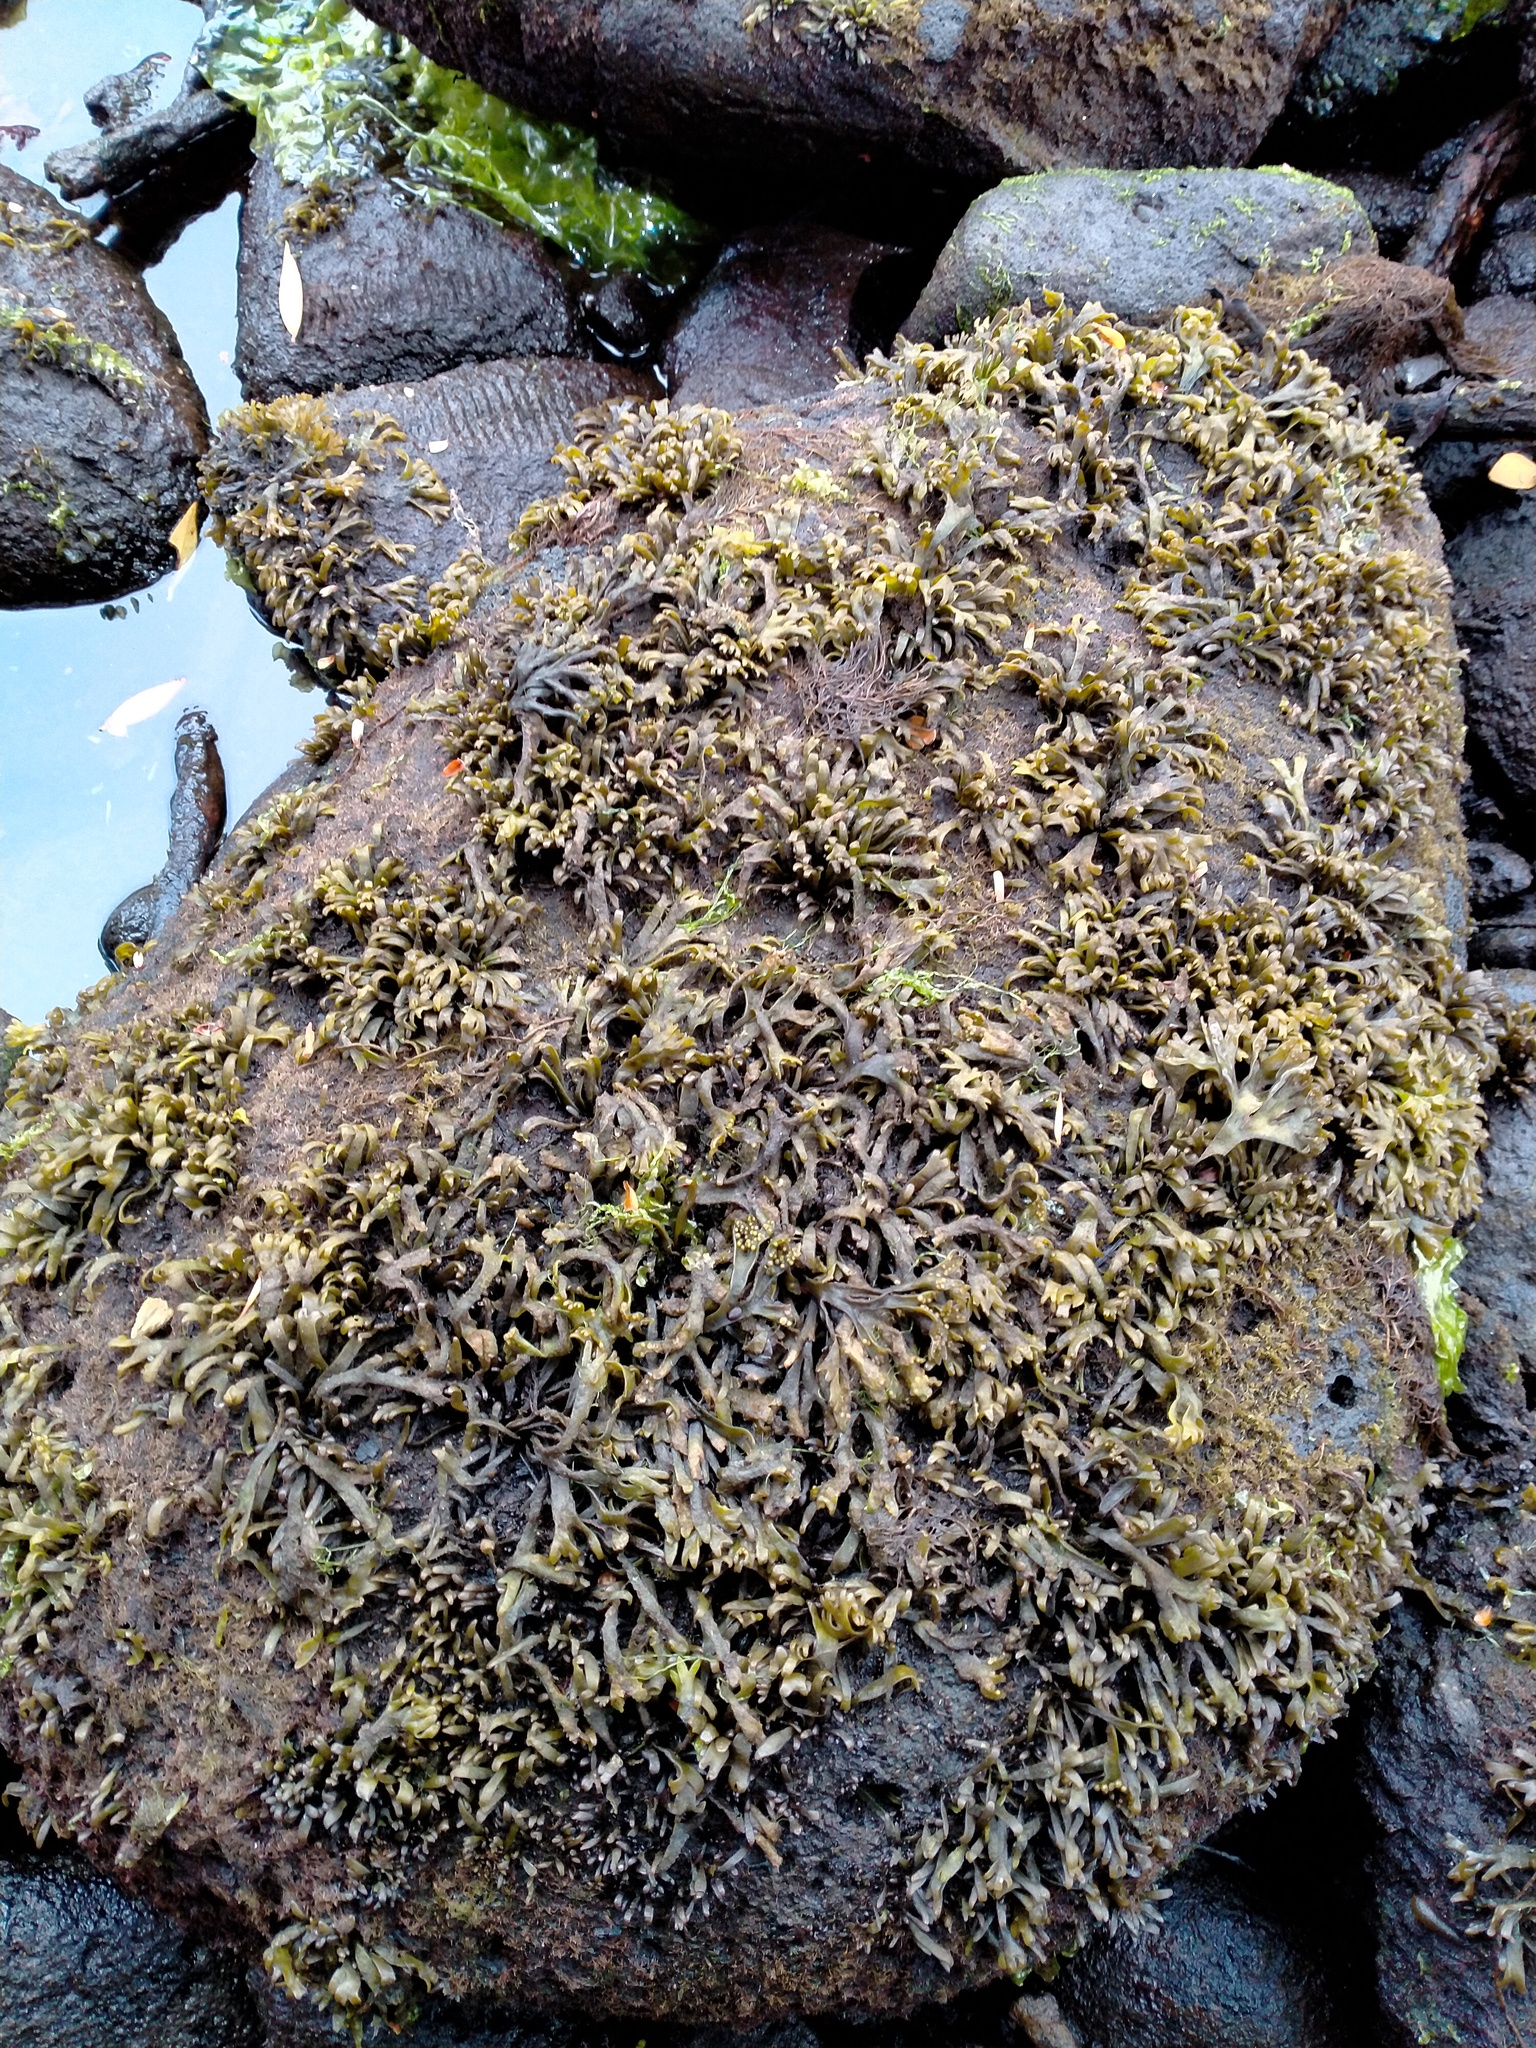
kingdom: Plantae
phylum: Rhodophyta
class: Florideophyceae
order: Gigartinales
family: Gigartinaceae
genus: Iridaea
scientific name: Iridaea tuberculosa
